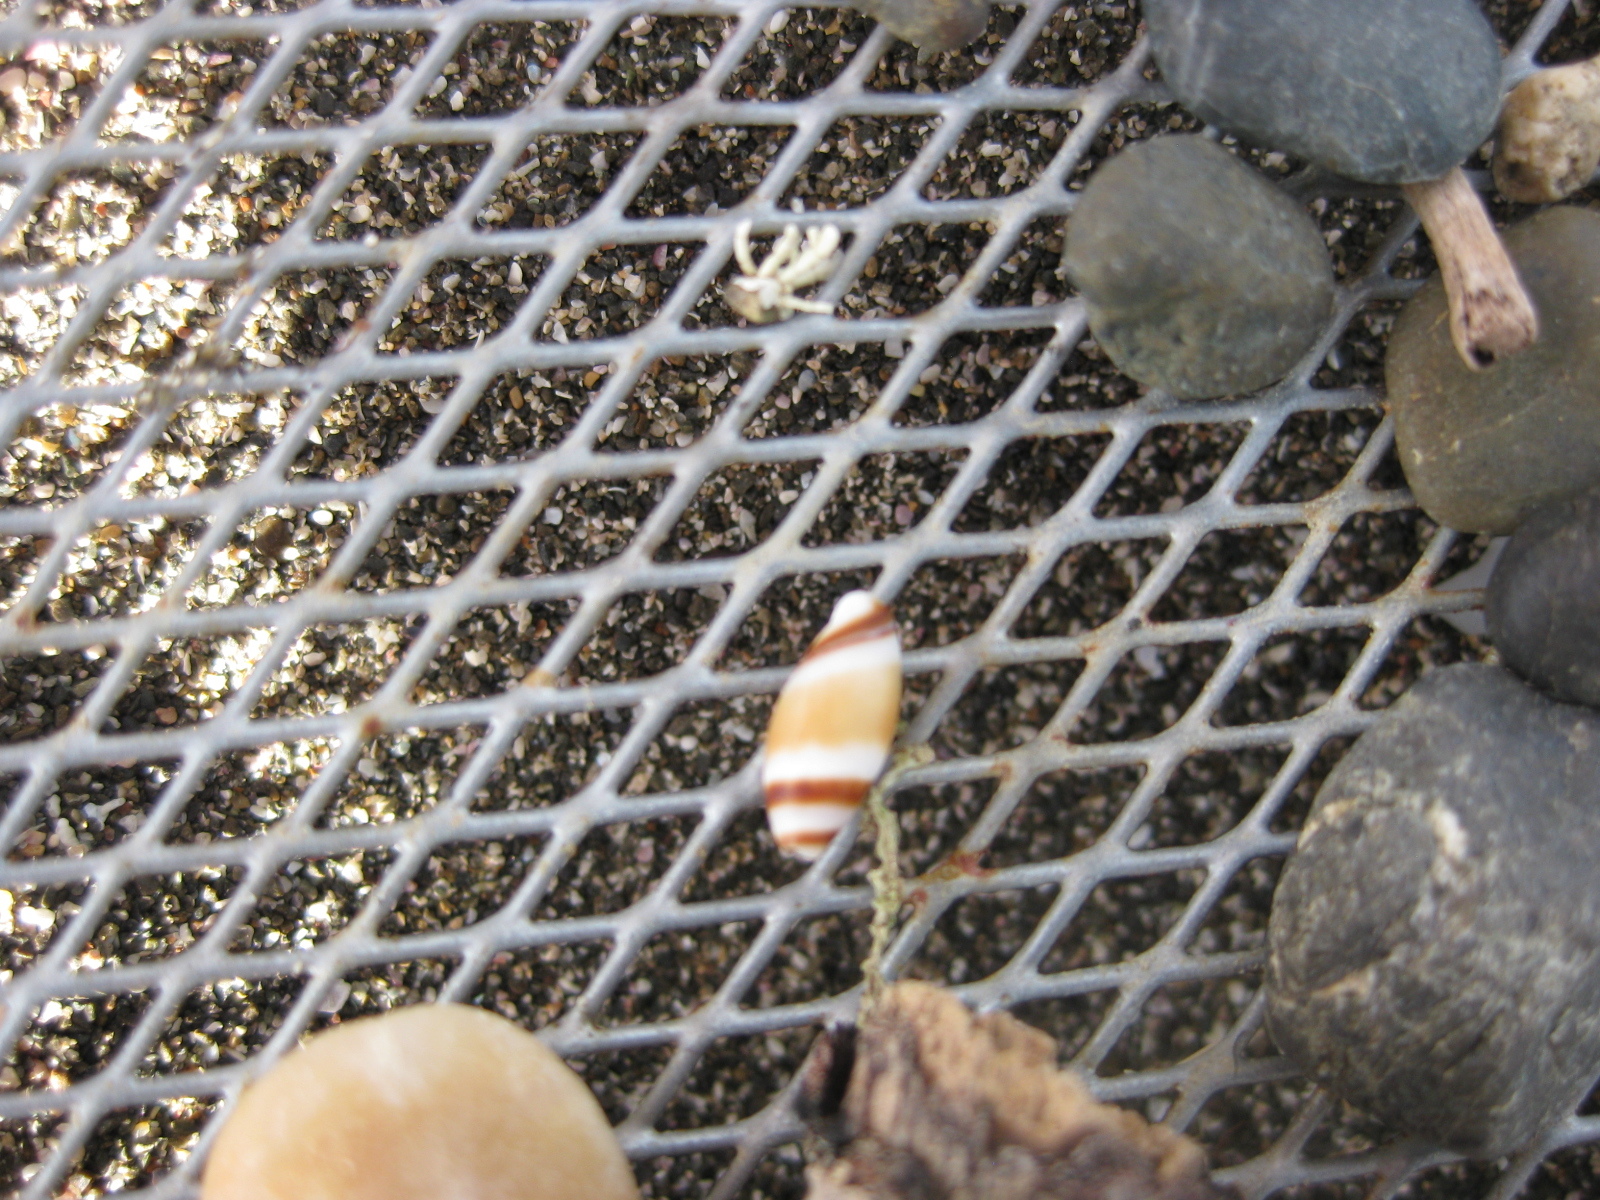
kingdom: Animalia
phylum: Mollusca
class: Gastropoda
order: Neogastropoda
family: Ancillariidae
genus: Amalda
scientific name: Amalda northlandica
